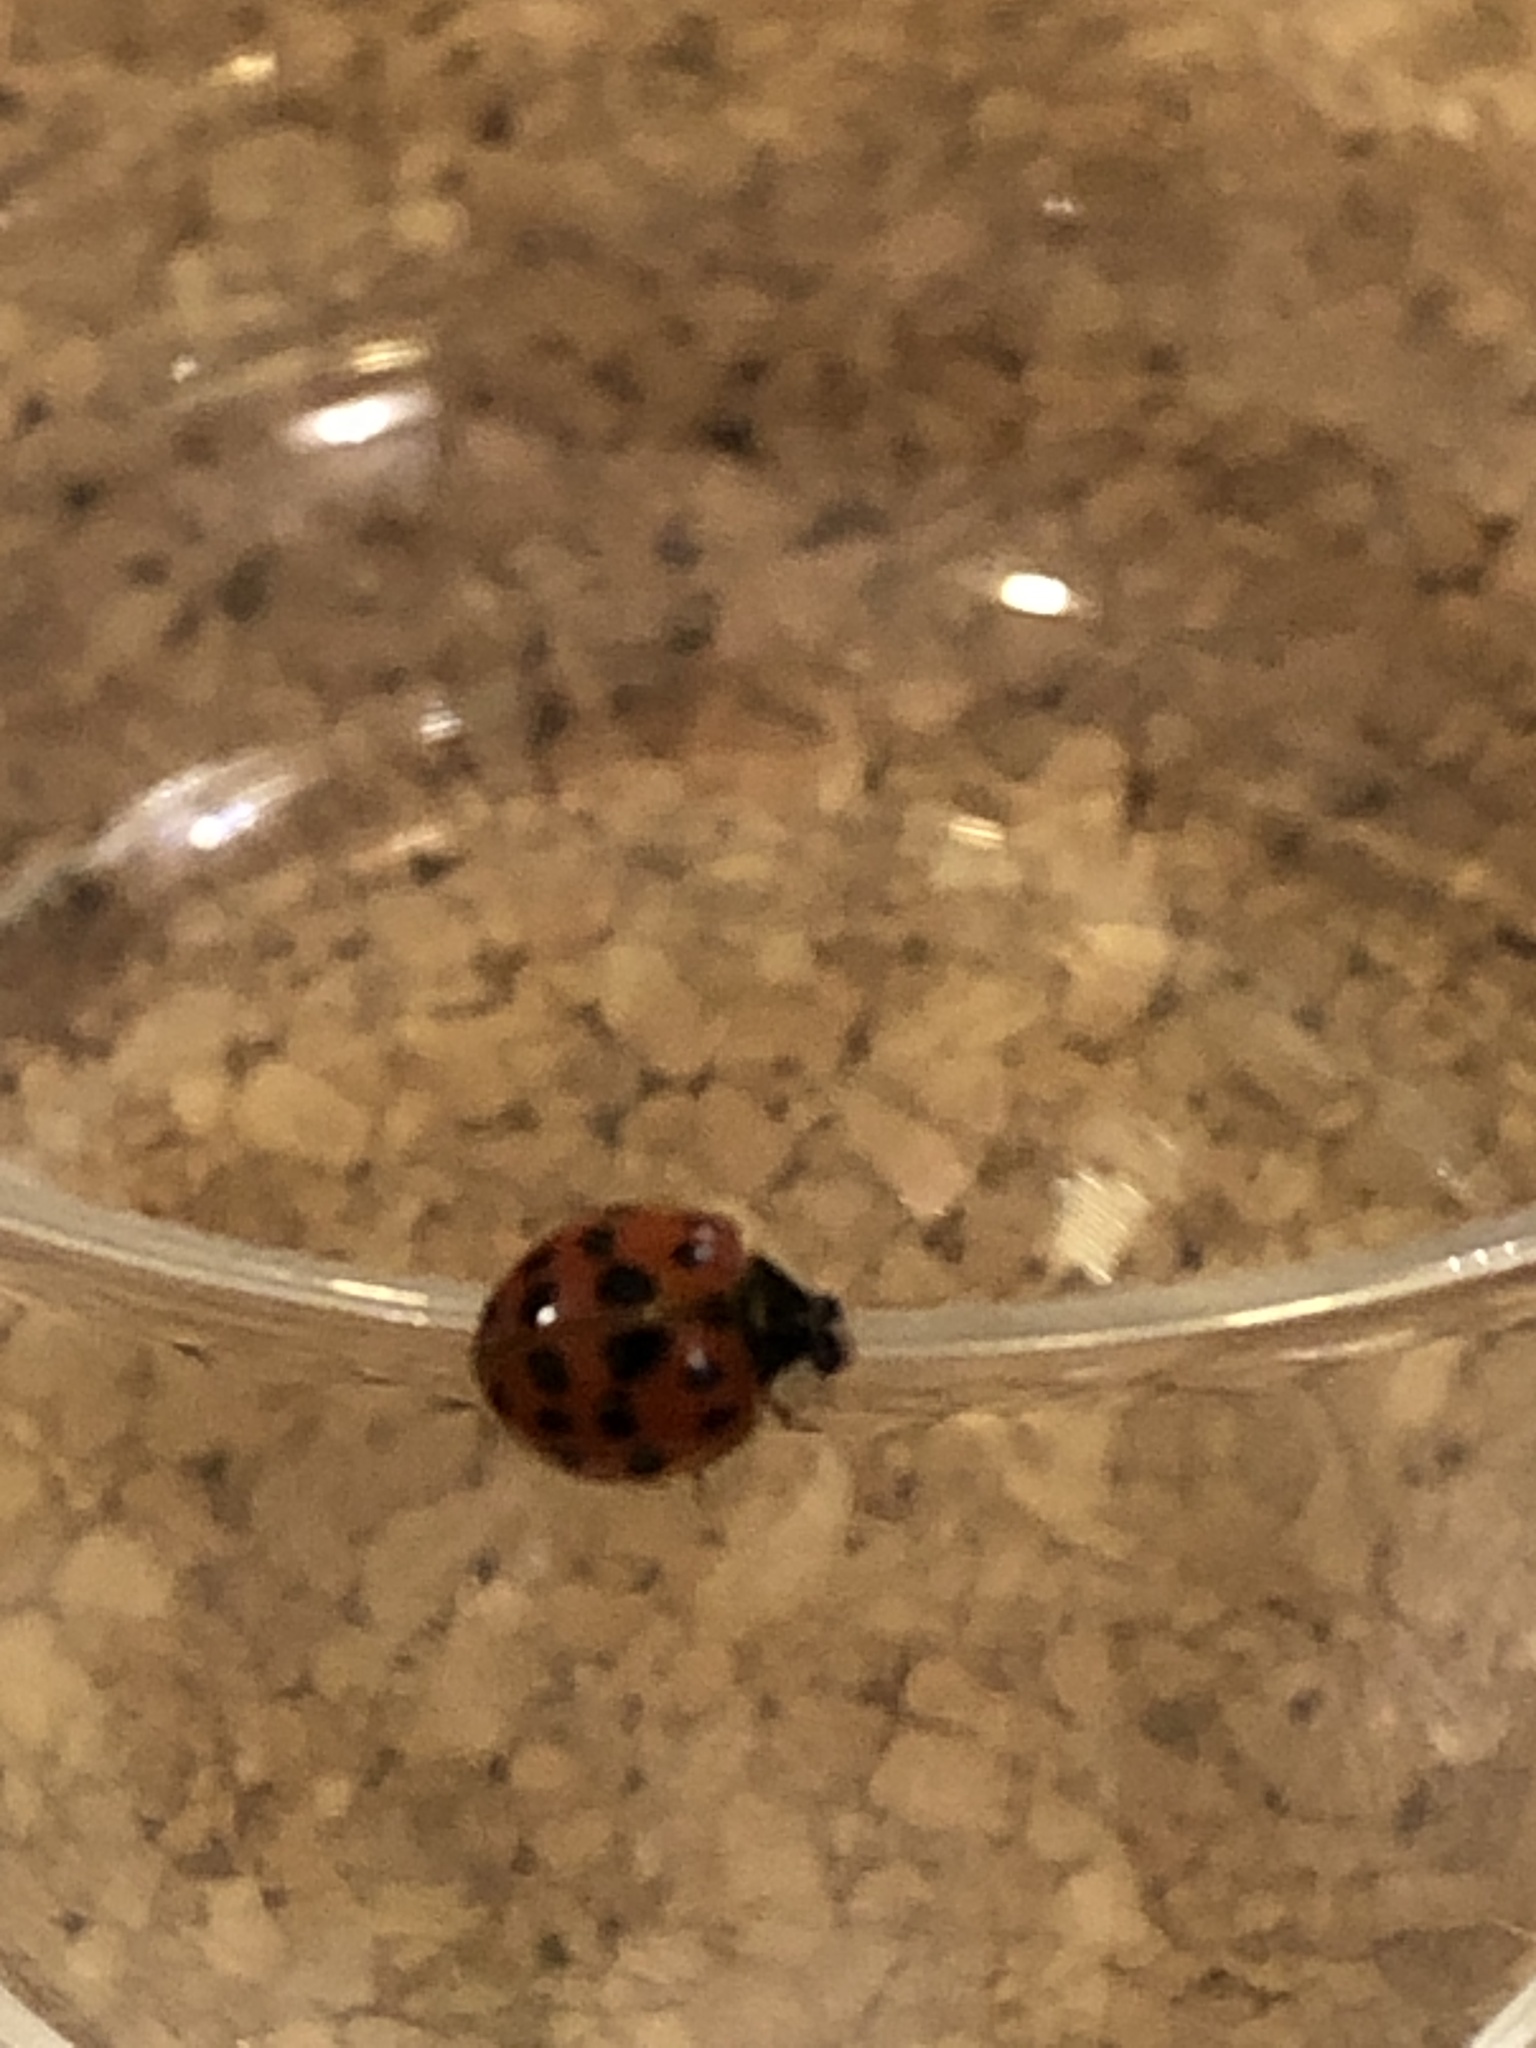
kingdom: Animalia
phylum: Arthropoda
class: Insecta
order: Coleoptera
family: Coccinellidae
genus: Harmonia
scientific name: Harmonia axyridis
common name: Harlequin ladybird
